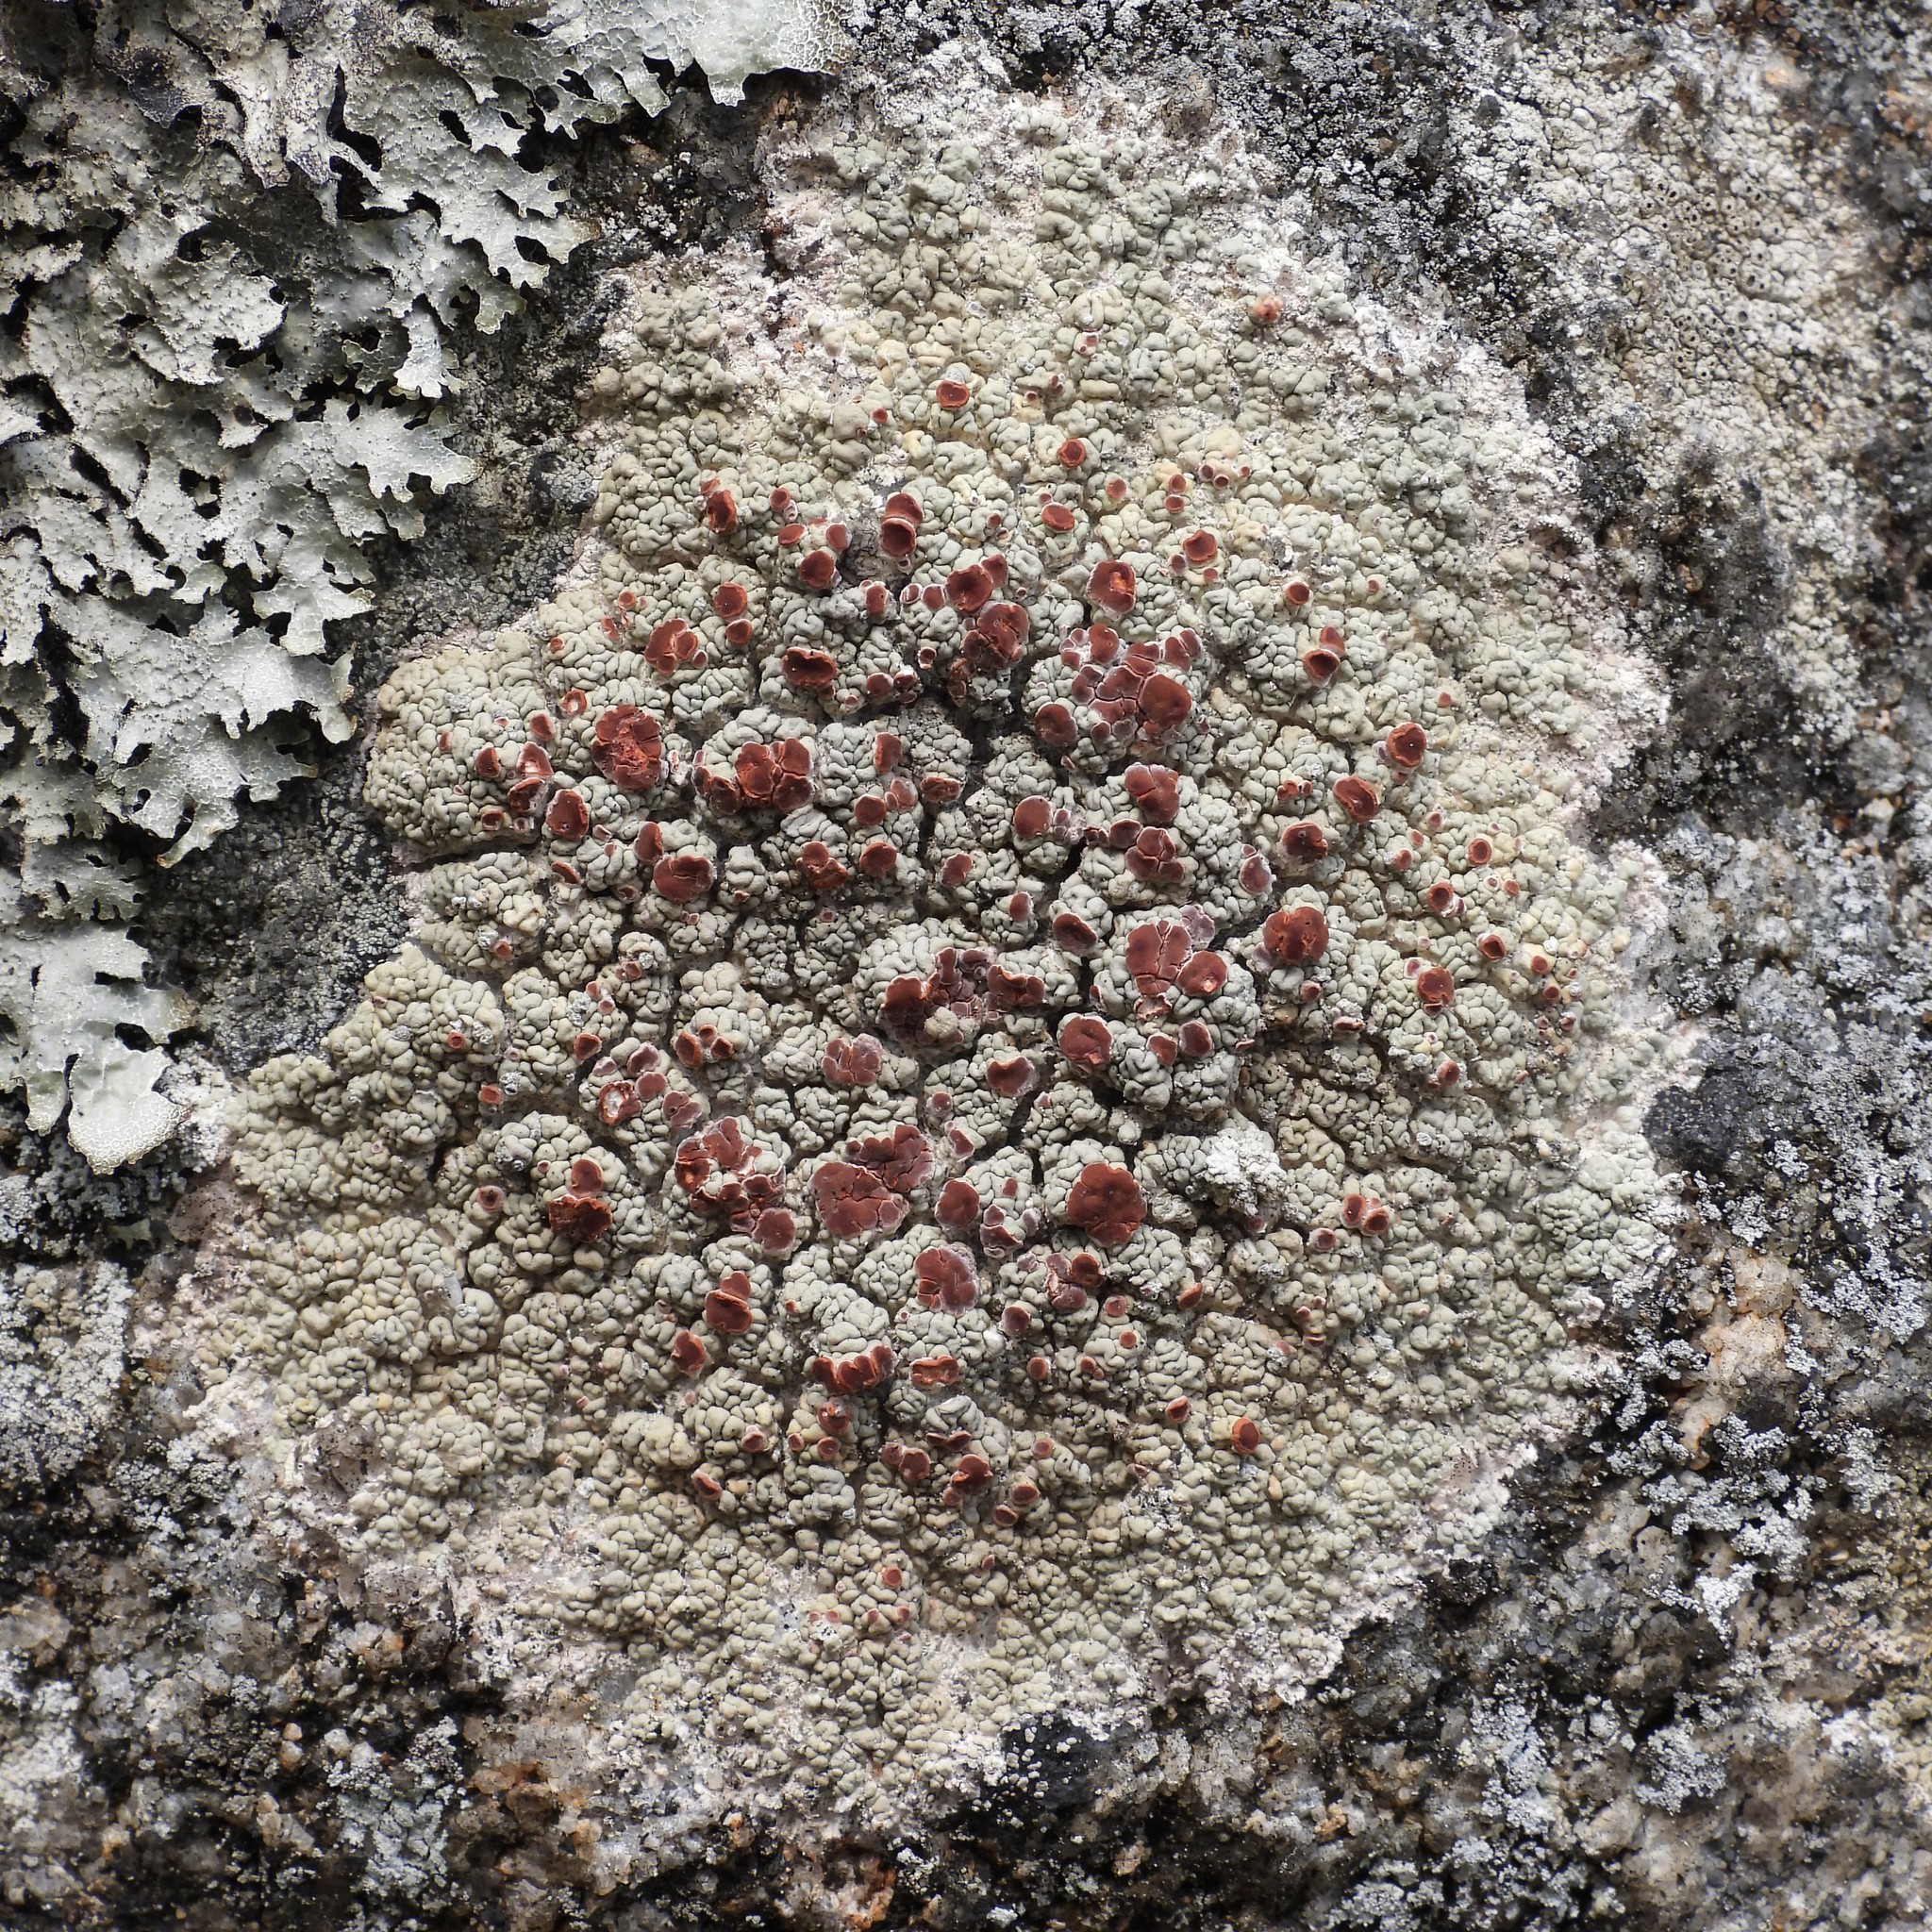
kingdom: Fungi
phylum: Ascomycota
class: Lecanoromycetes
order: Umbilicariales
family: Ophioparmaceae
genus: Ophioparma
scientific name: Ophioparma ventosa
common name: Blood-spot
